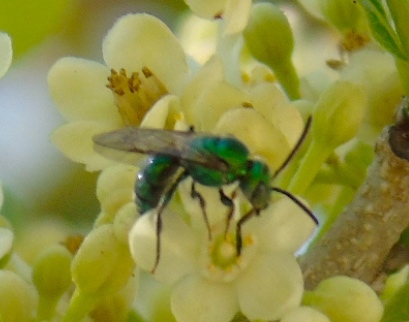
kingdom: Animalia
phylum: Arthropoda
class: Insecta
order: Hymenoptera
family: Halictidae
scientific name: Halictidae
